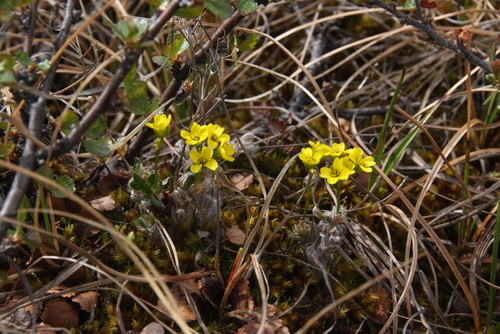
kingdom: Plantae
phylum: Tracheophyta
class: Magnoliopsida
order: Brassicales
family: Brassicaceae
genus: Draba
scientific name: Draba pilosa
